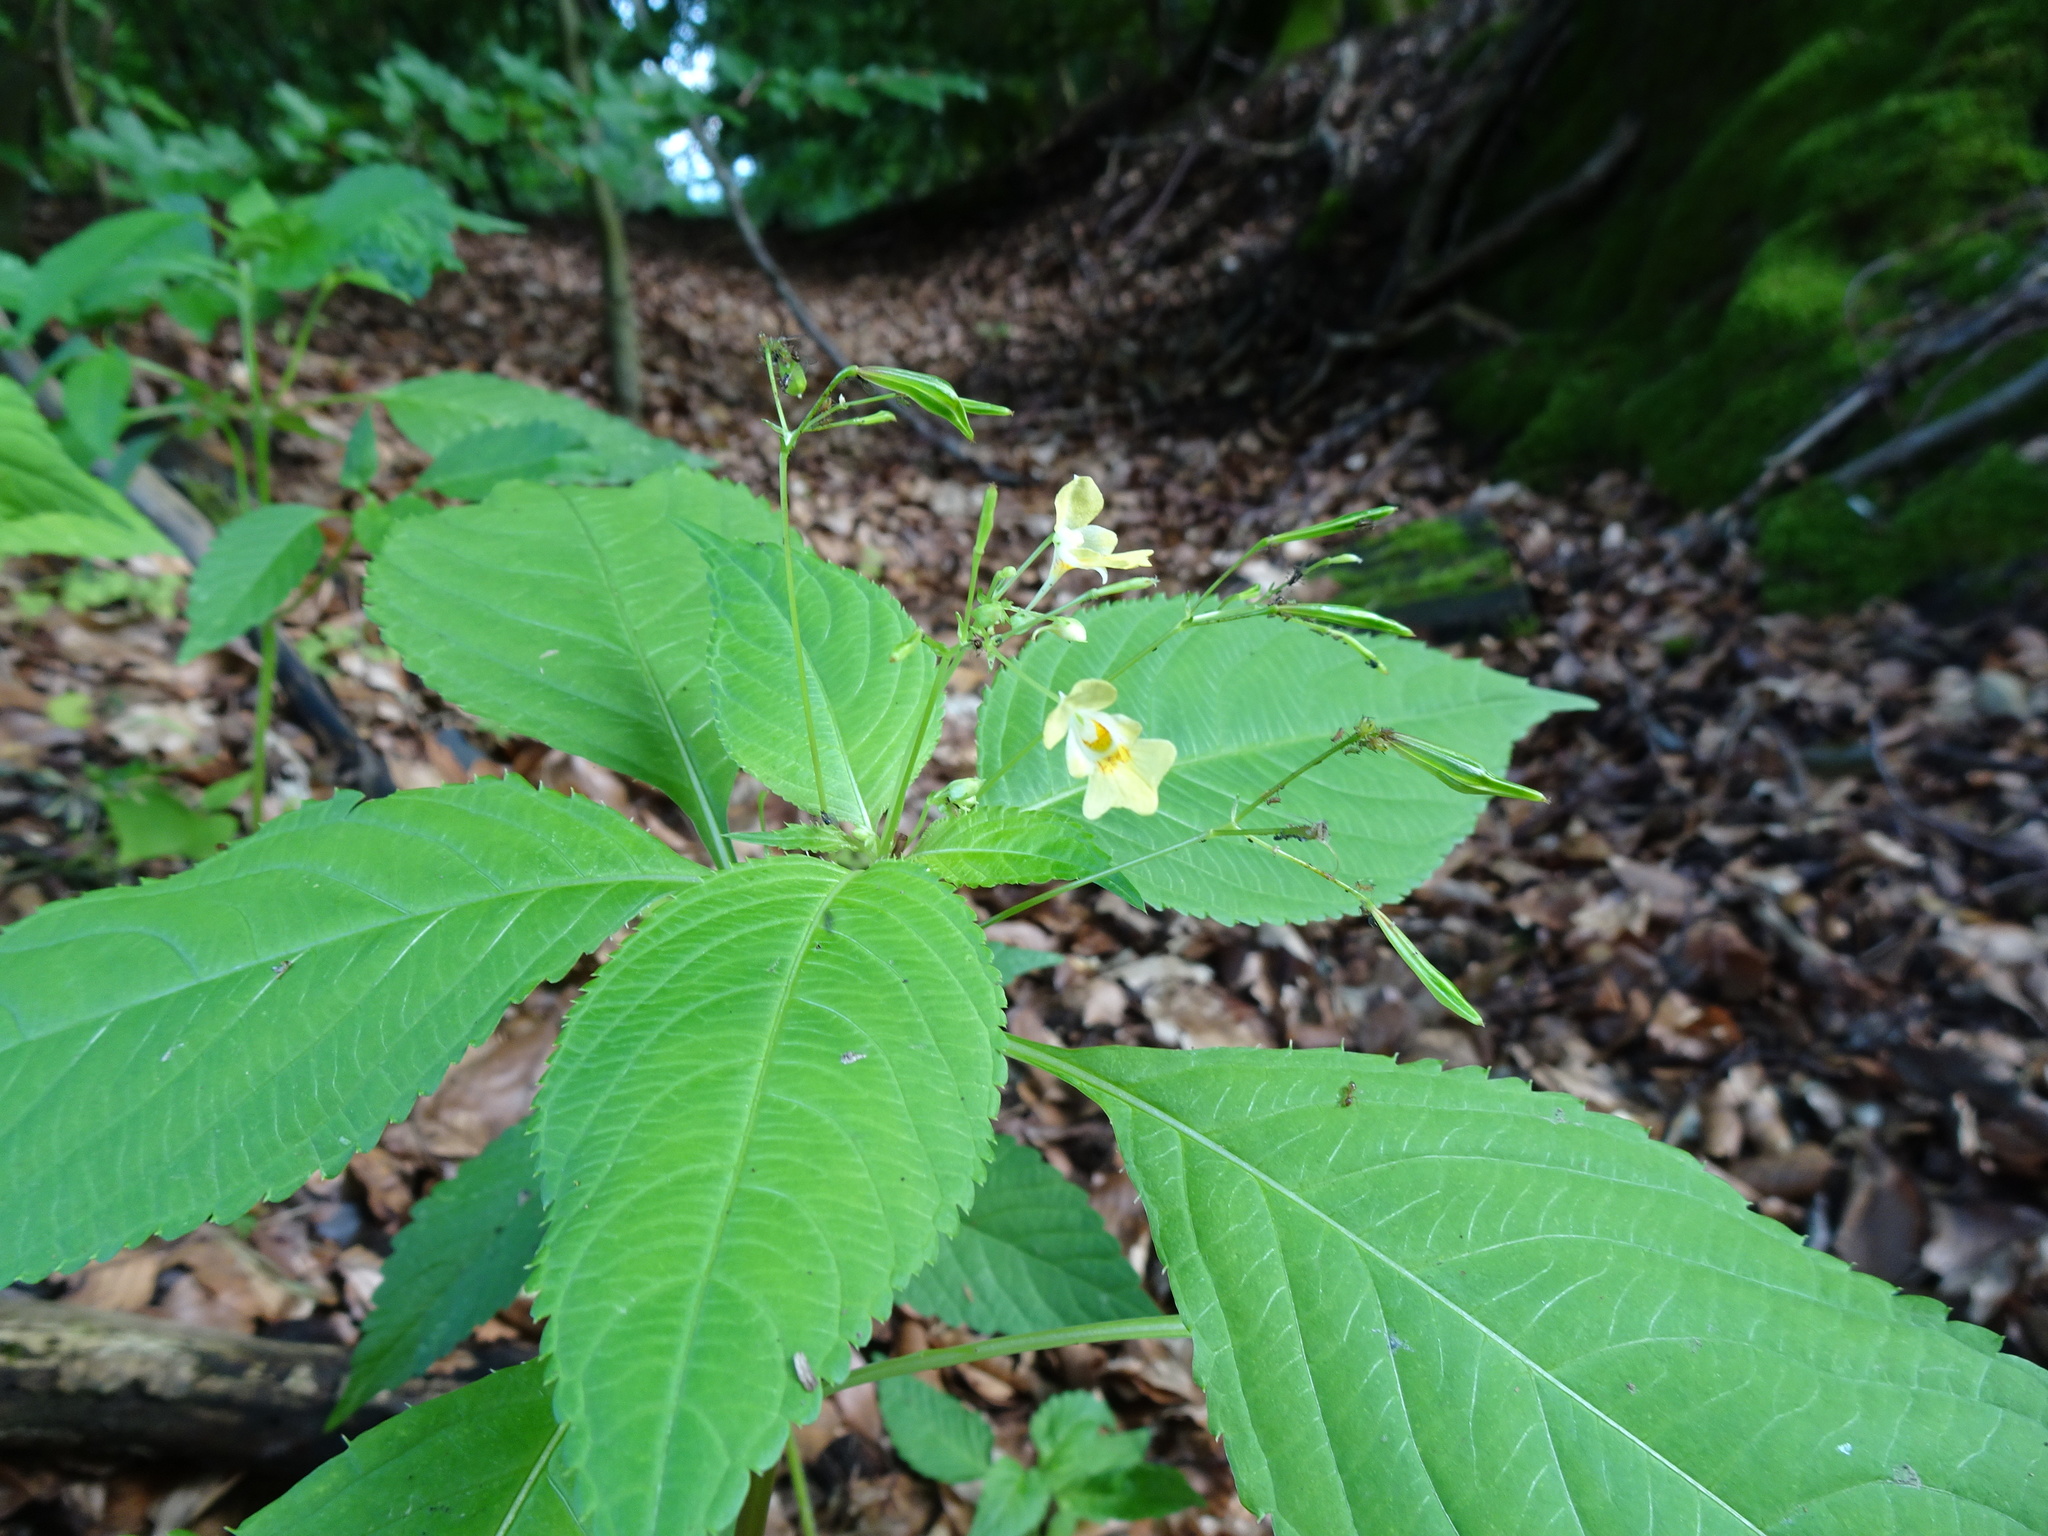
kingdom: Plantae
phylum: Tracheophyta
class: Magnoliopsida
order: Ericales
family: Balsaminaceae
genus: Impatiens
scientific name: Impatiens parviflora
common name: Small balsam
